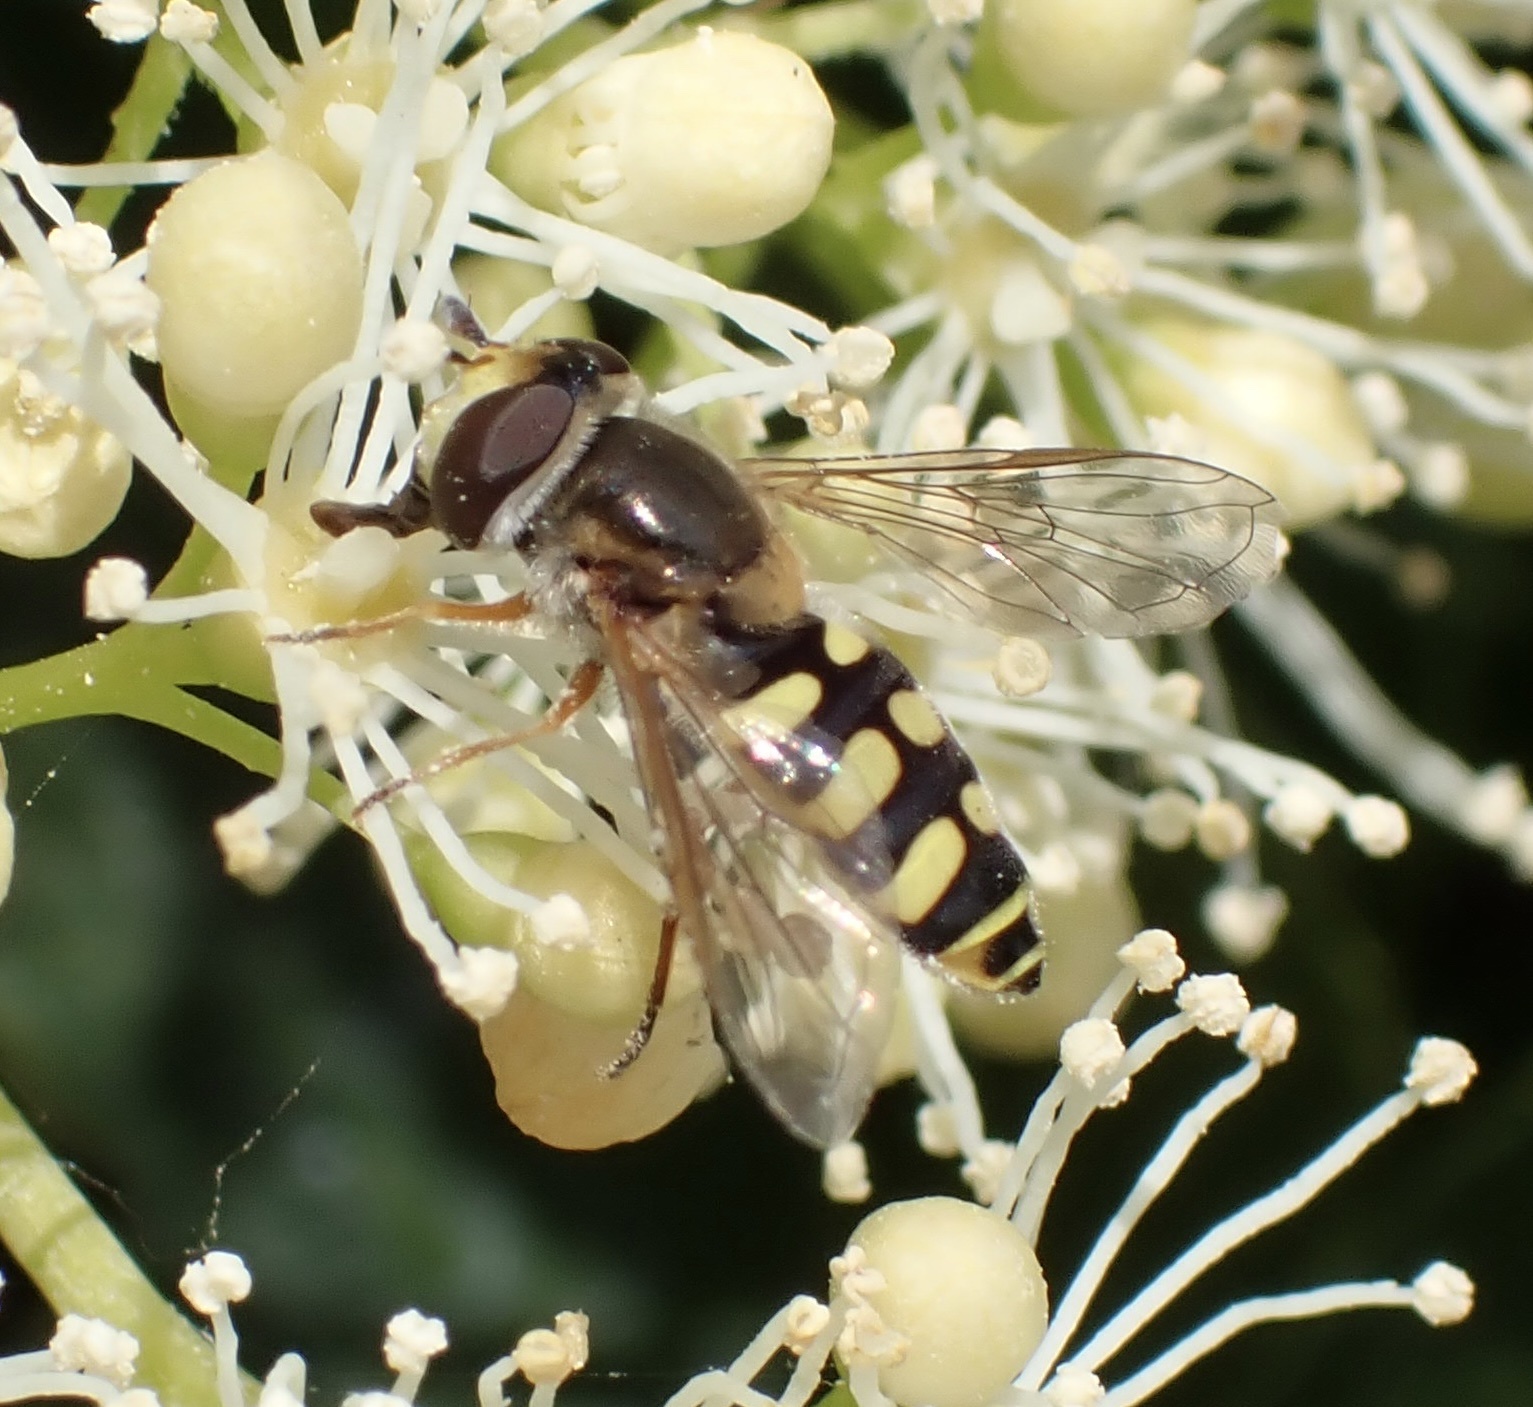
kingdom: Animalia
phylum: Arthropoda
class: Insecta
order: Diptera
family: Syrphidae
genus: Eupeodes
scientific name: Eupeodes corollae
